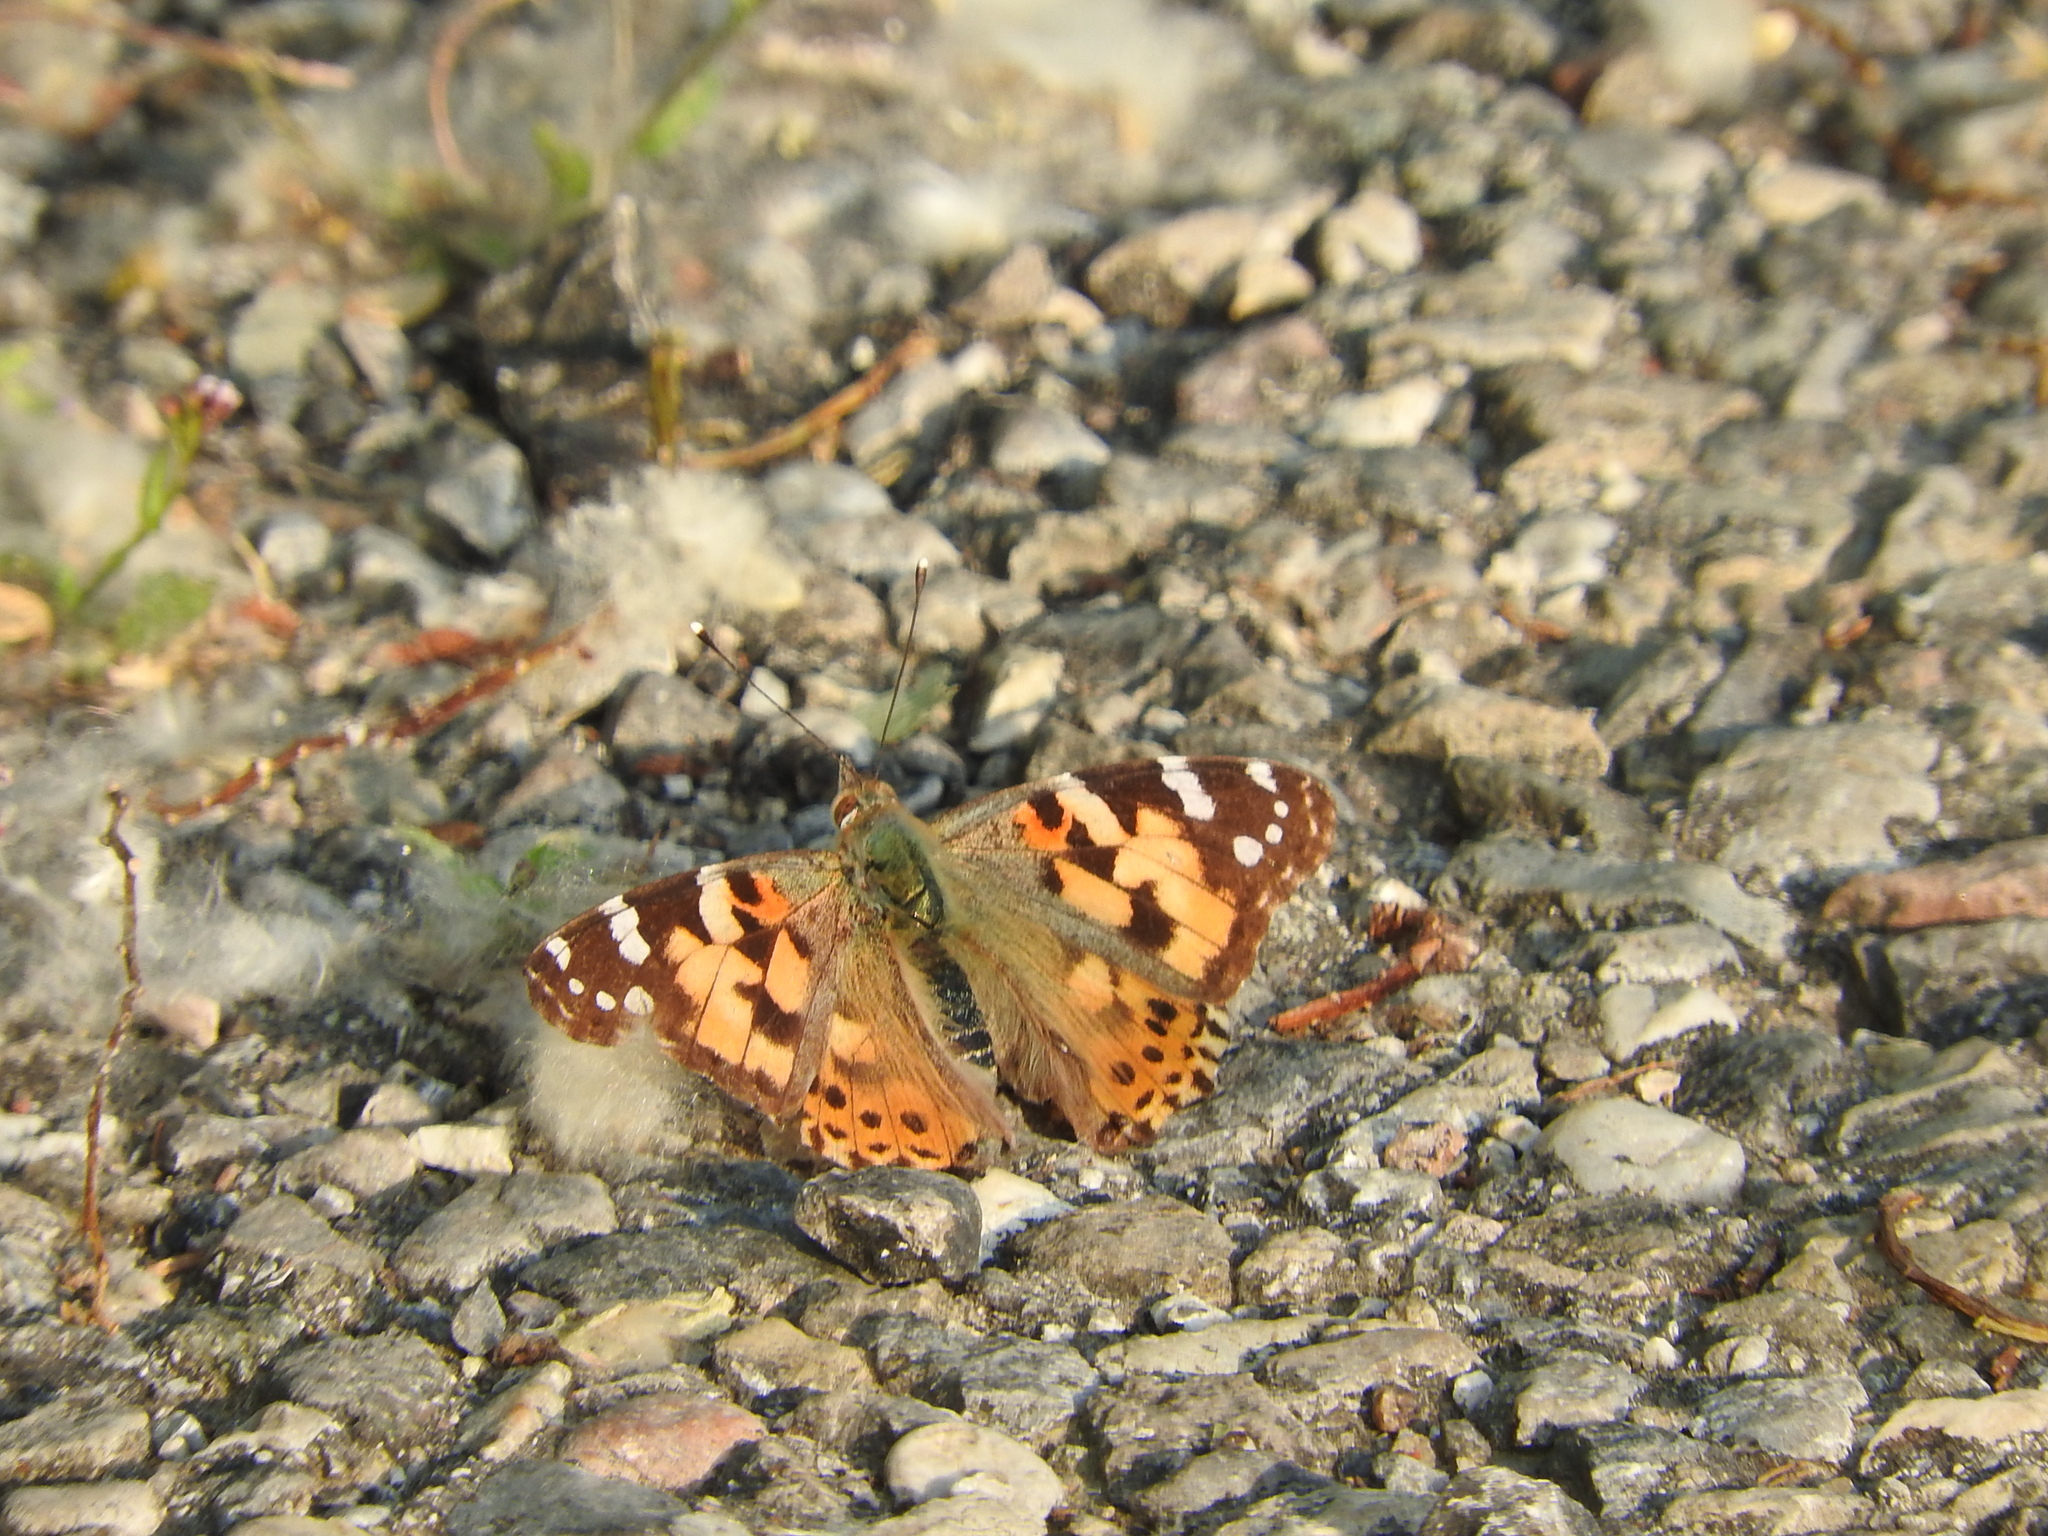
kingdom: Animalia
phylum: Arthropoda
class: Insecta
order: Lepidoptera
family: Nymphalidae
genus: Vanessa
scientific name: Vanessa cardui
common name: Painted lady
